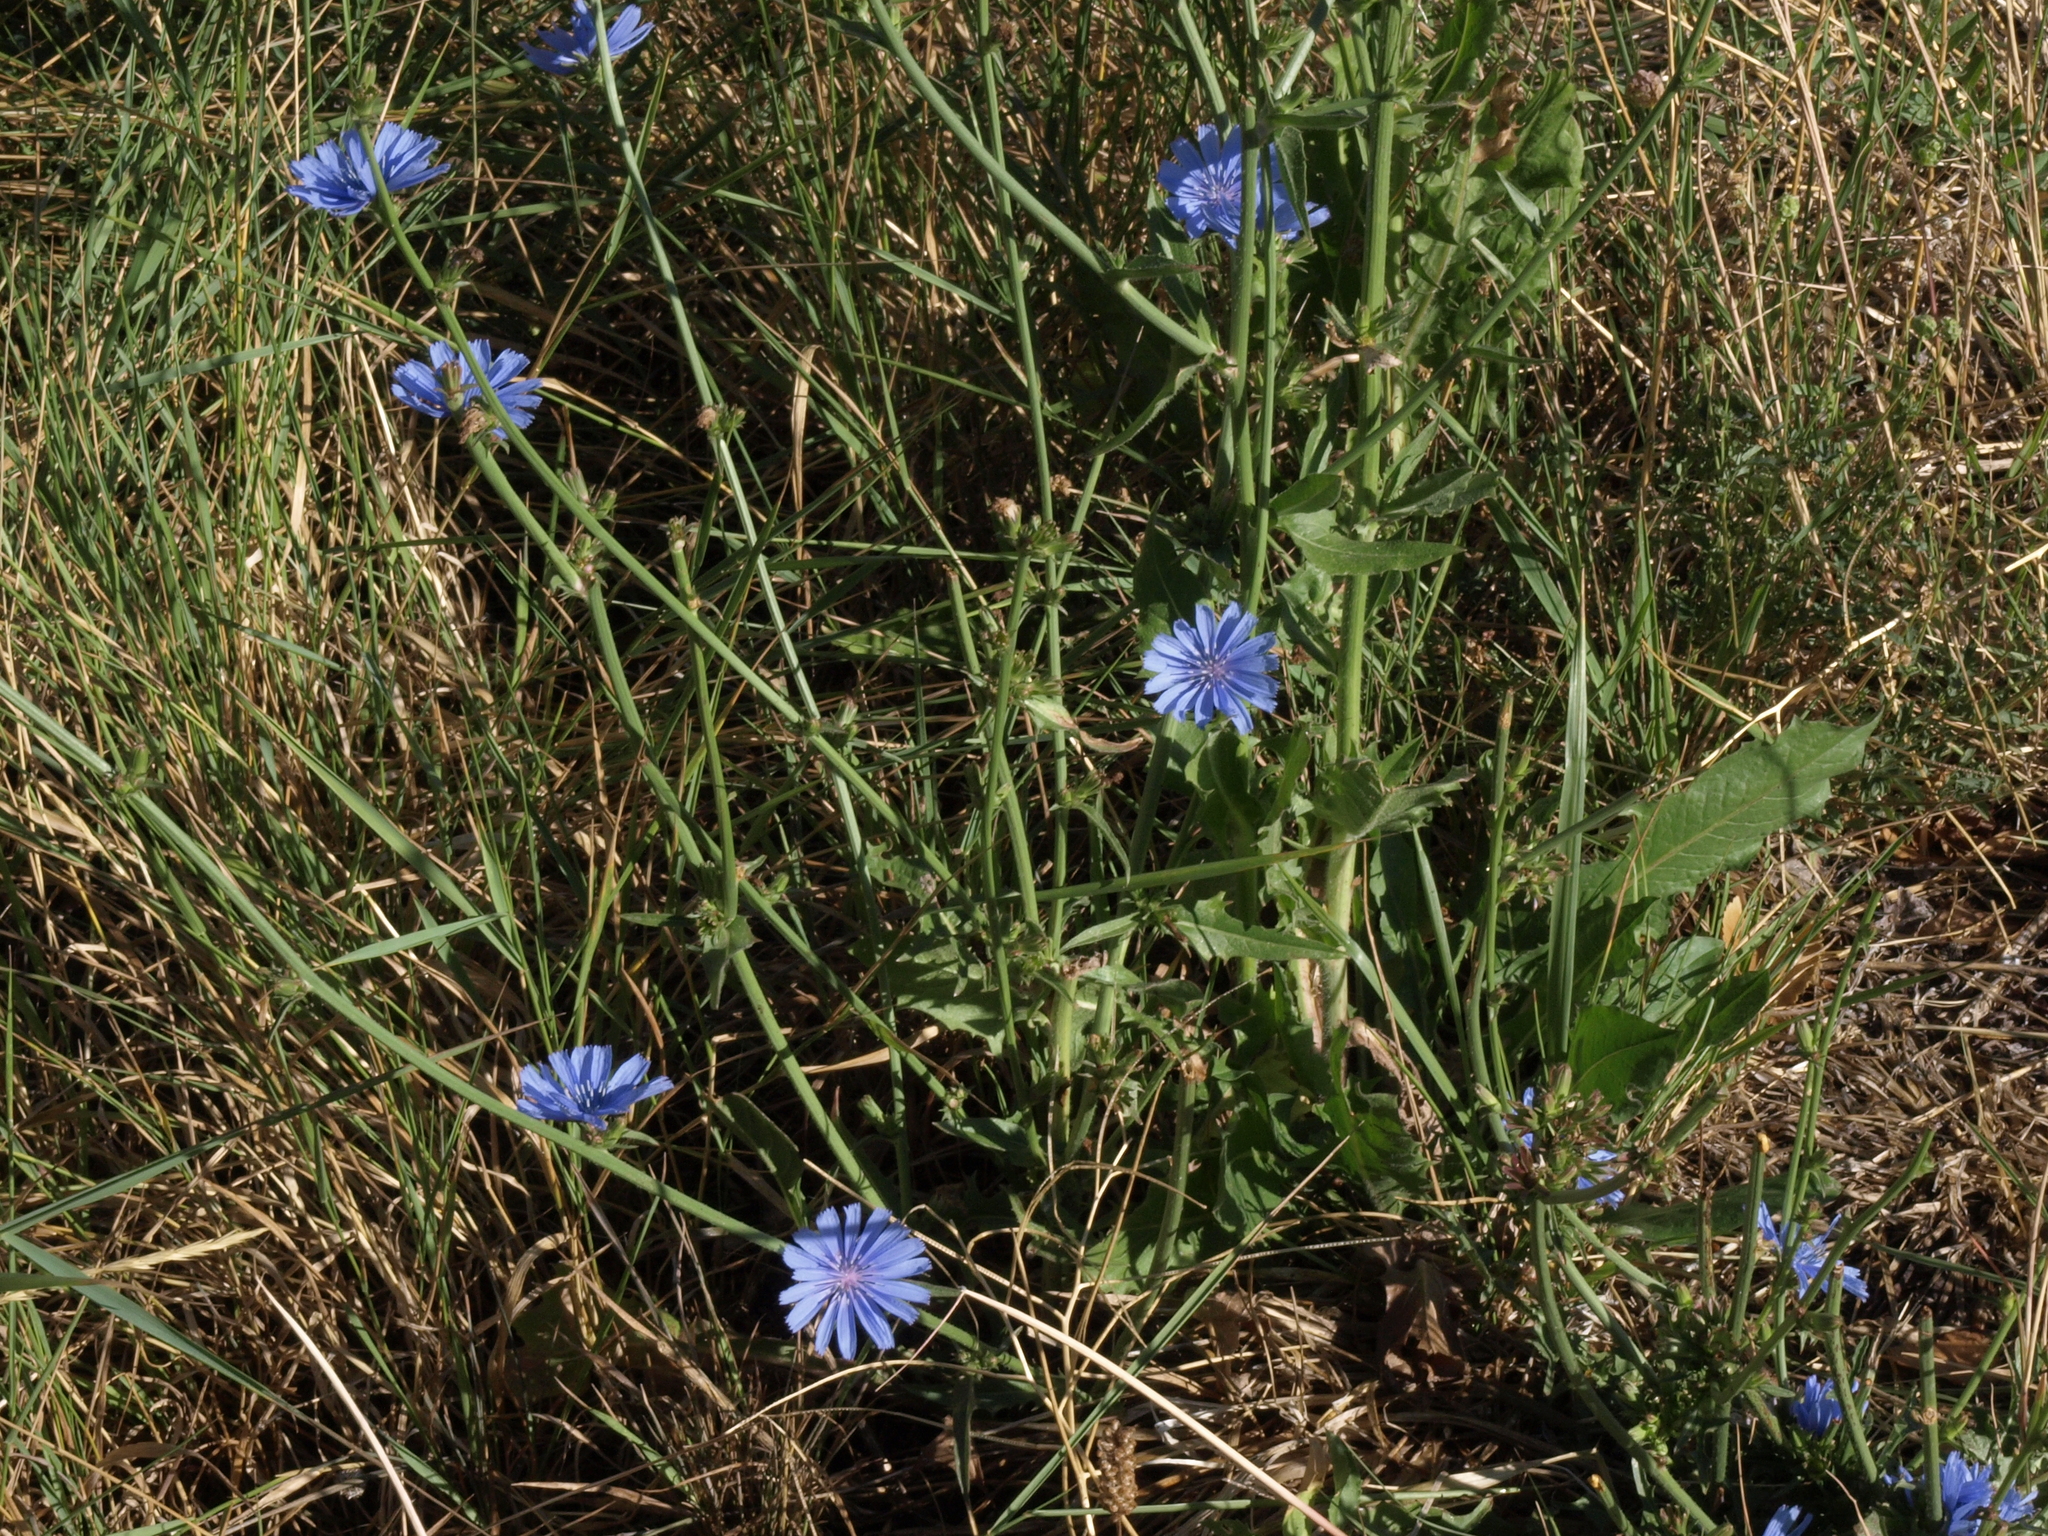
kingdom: Plantae
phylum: Tracheophyta
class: Magnoliopsida
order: Asterales
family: Asteraceae
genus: Cichorium
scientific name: Cichorium intybus
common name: Chicory
